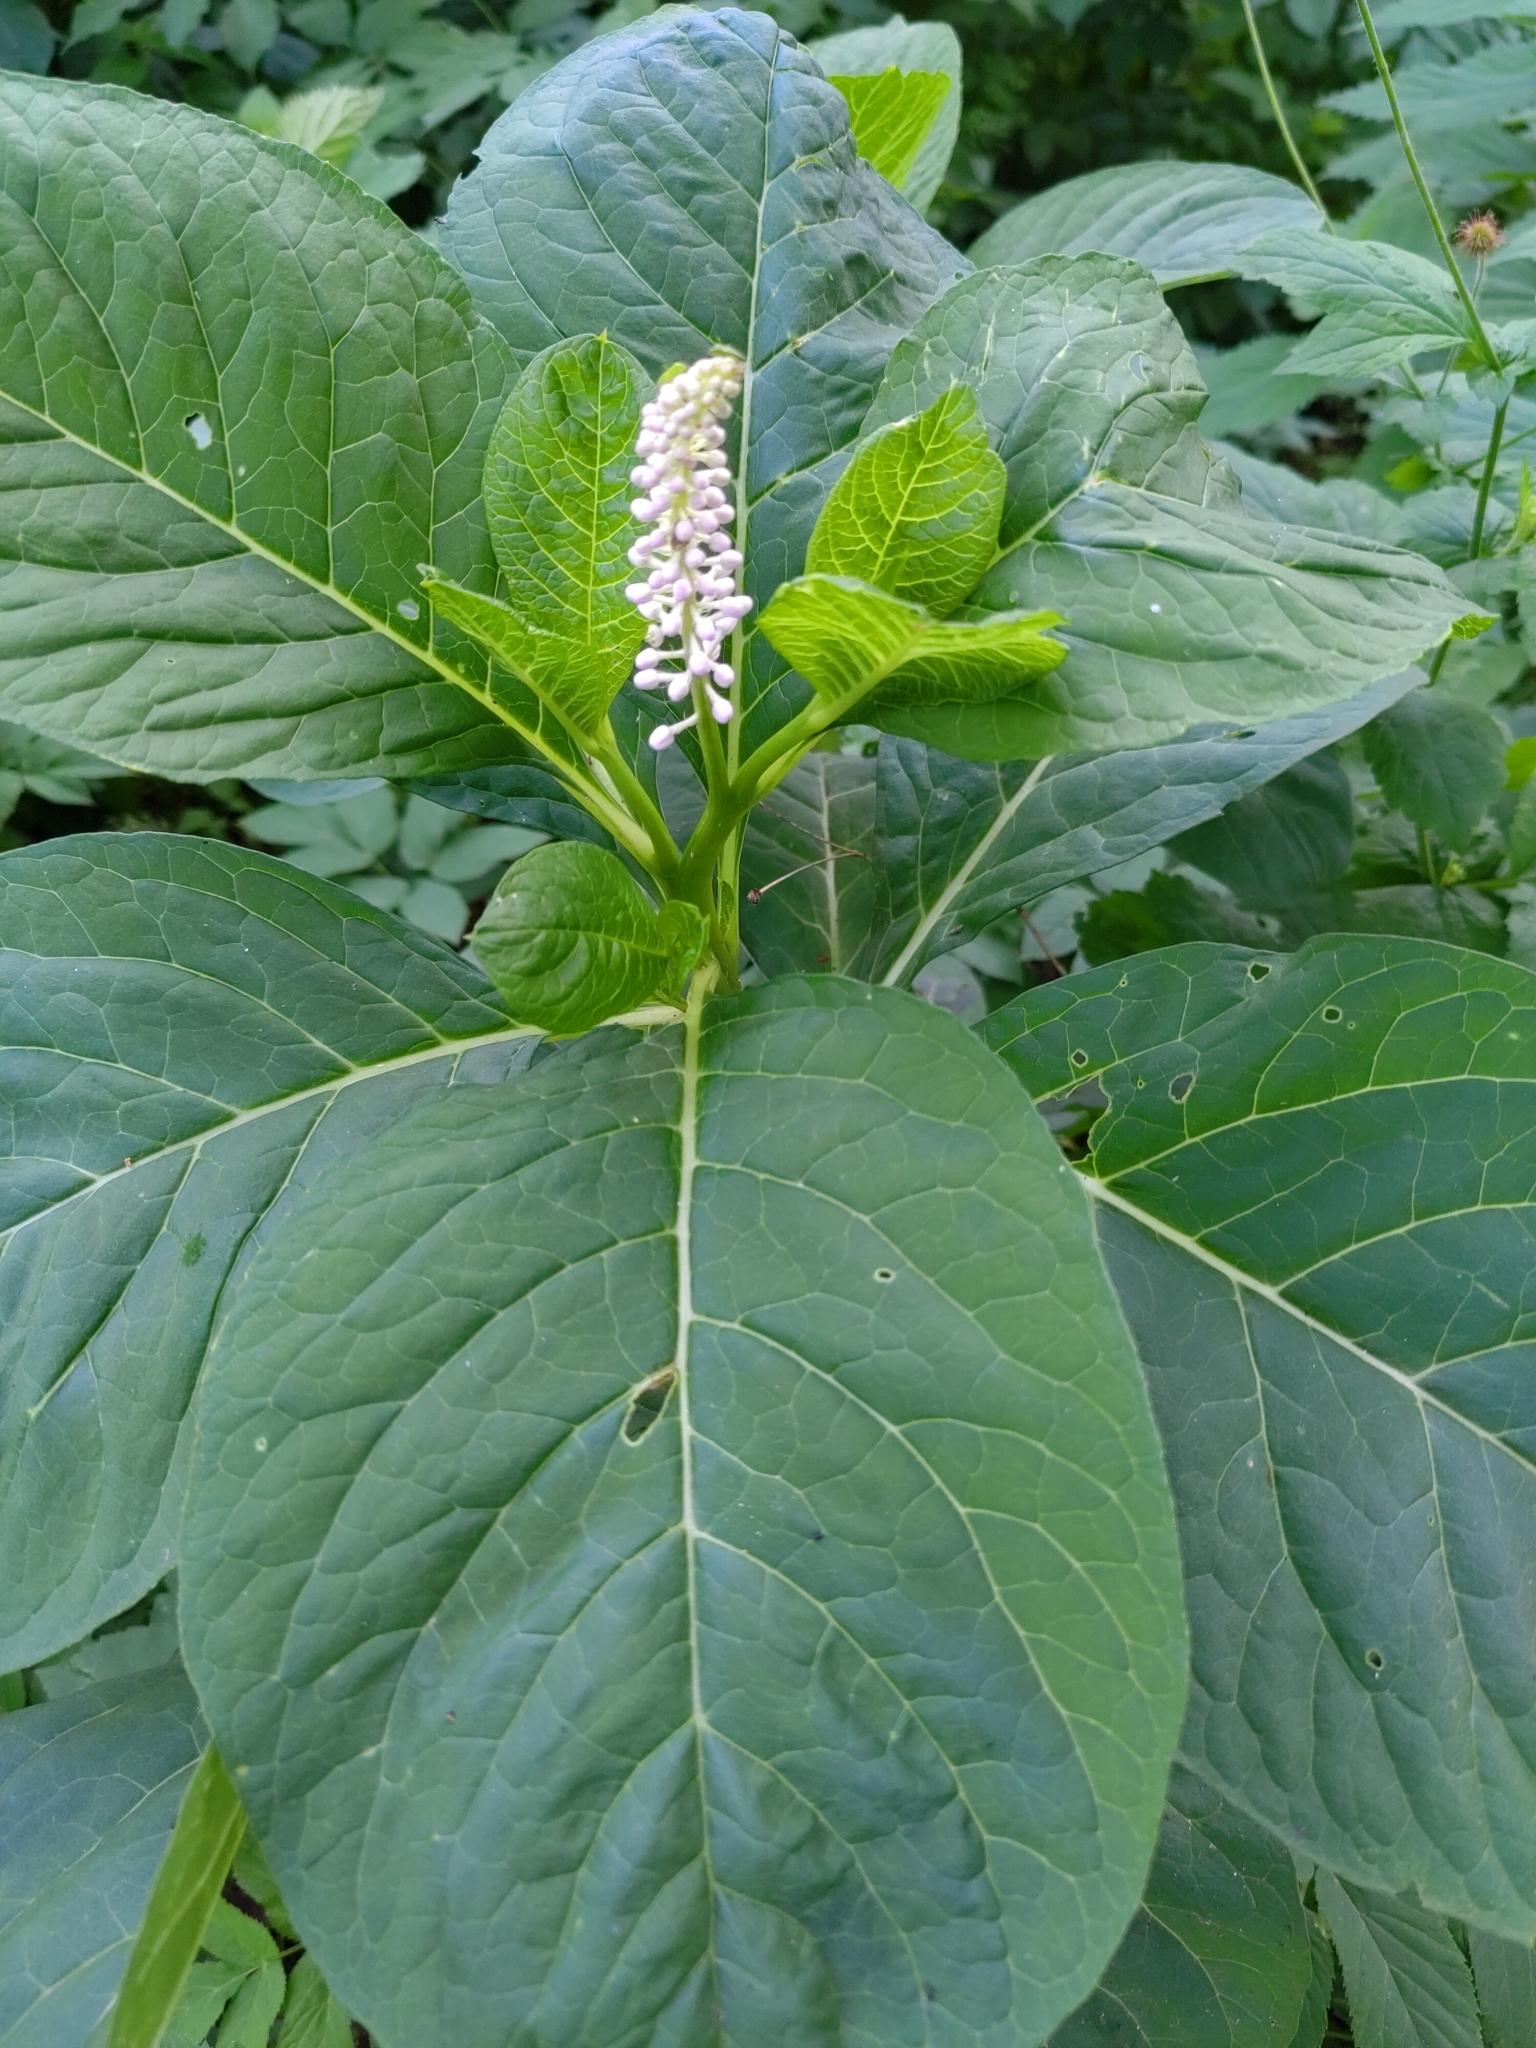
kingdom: Plantae
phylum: Tracheophyta
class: Magnoliopsida
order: Caryophyllales
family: Phytolaccaceae
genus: Phytolacca
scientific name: Phytolacca acinosa
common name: Indian pokeweed
